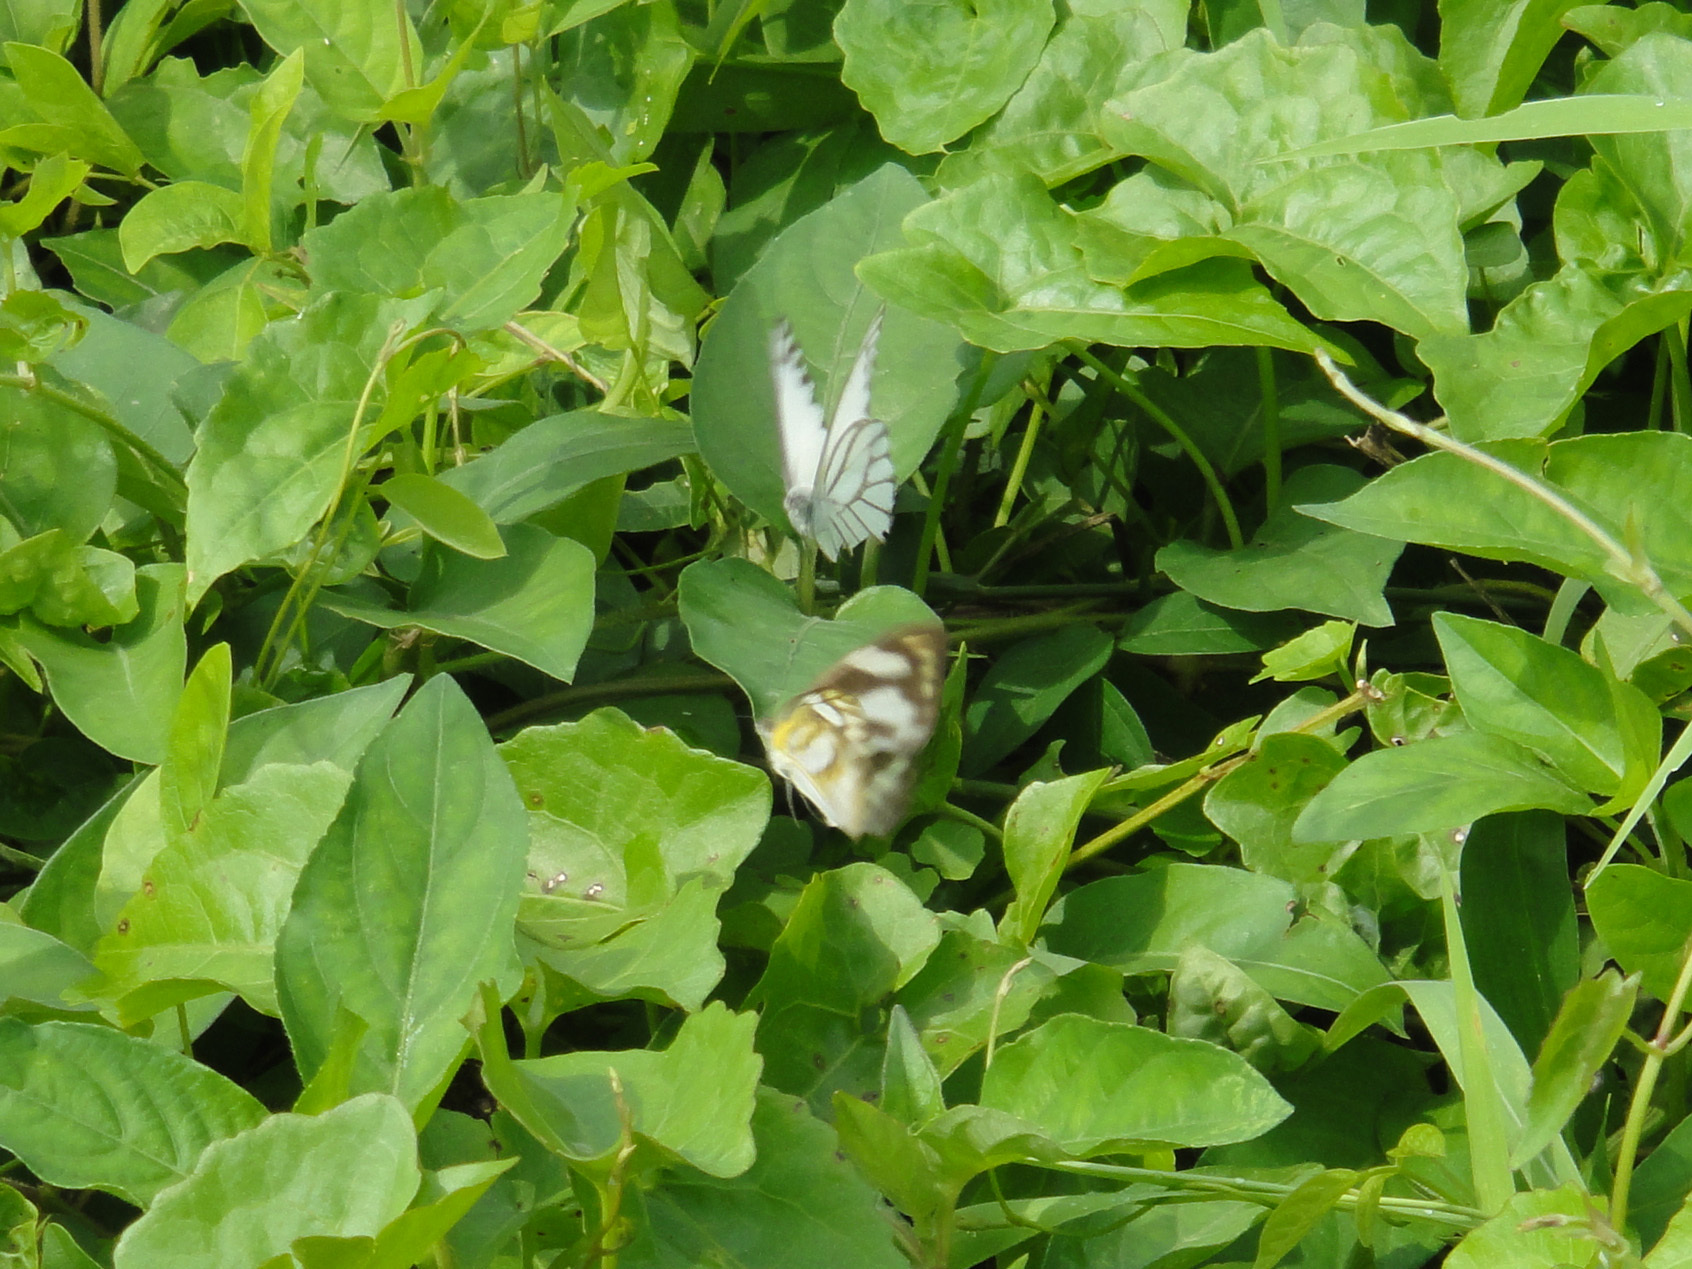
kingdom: Animalia
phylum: Arthropoda
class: Insecta
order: Lepidoptera
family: Pieridae
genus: Appias
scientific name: Appias libythea
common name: Striped albatross
